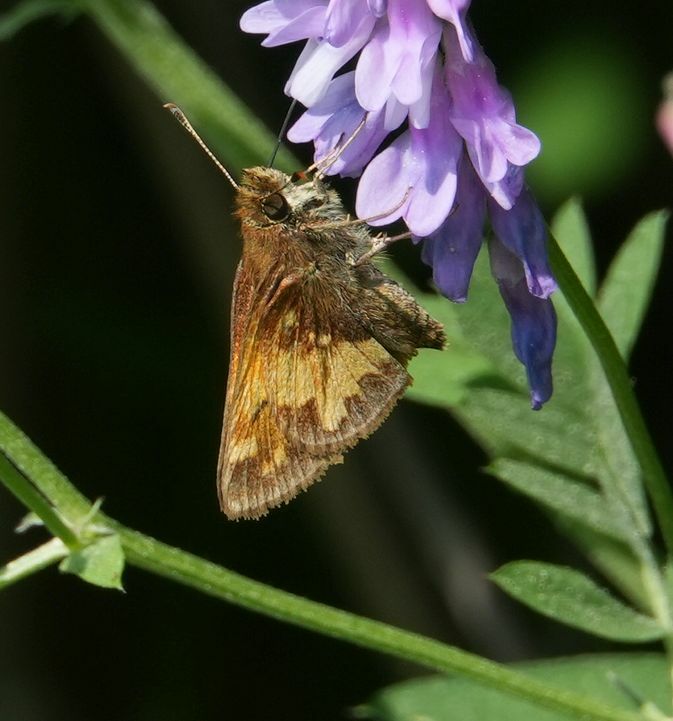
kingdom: Animalia
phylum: Arthropoda
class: Insecta
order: Lepidoptera
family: Hesperiidae
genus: Lon
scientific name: Lon hobomok
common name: Hobomok skipper
